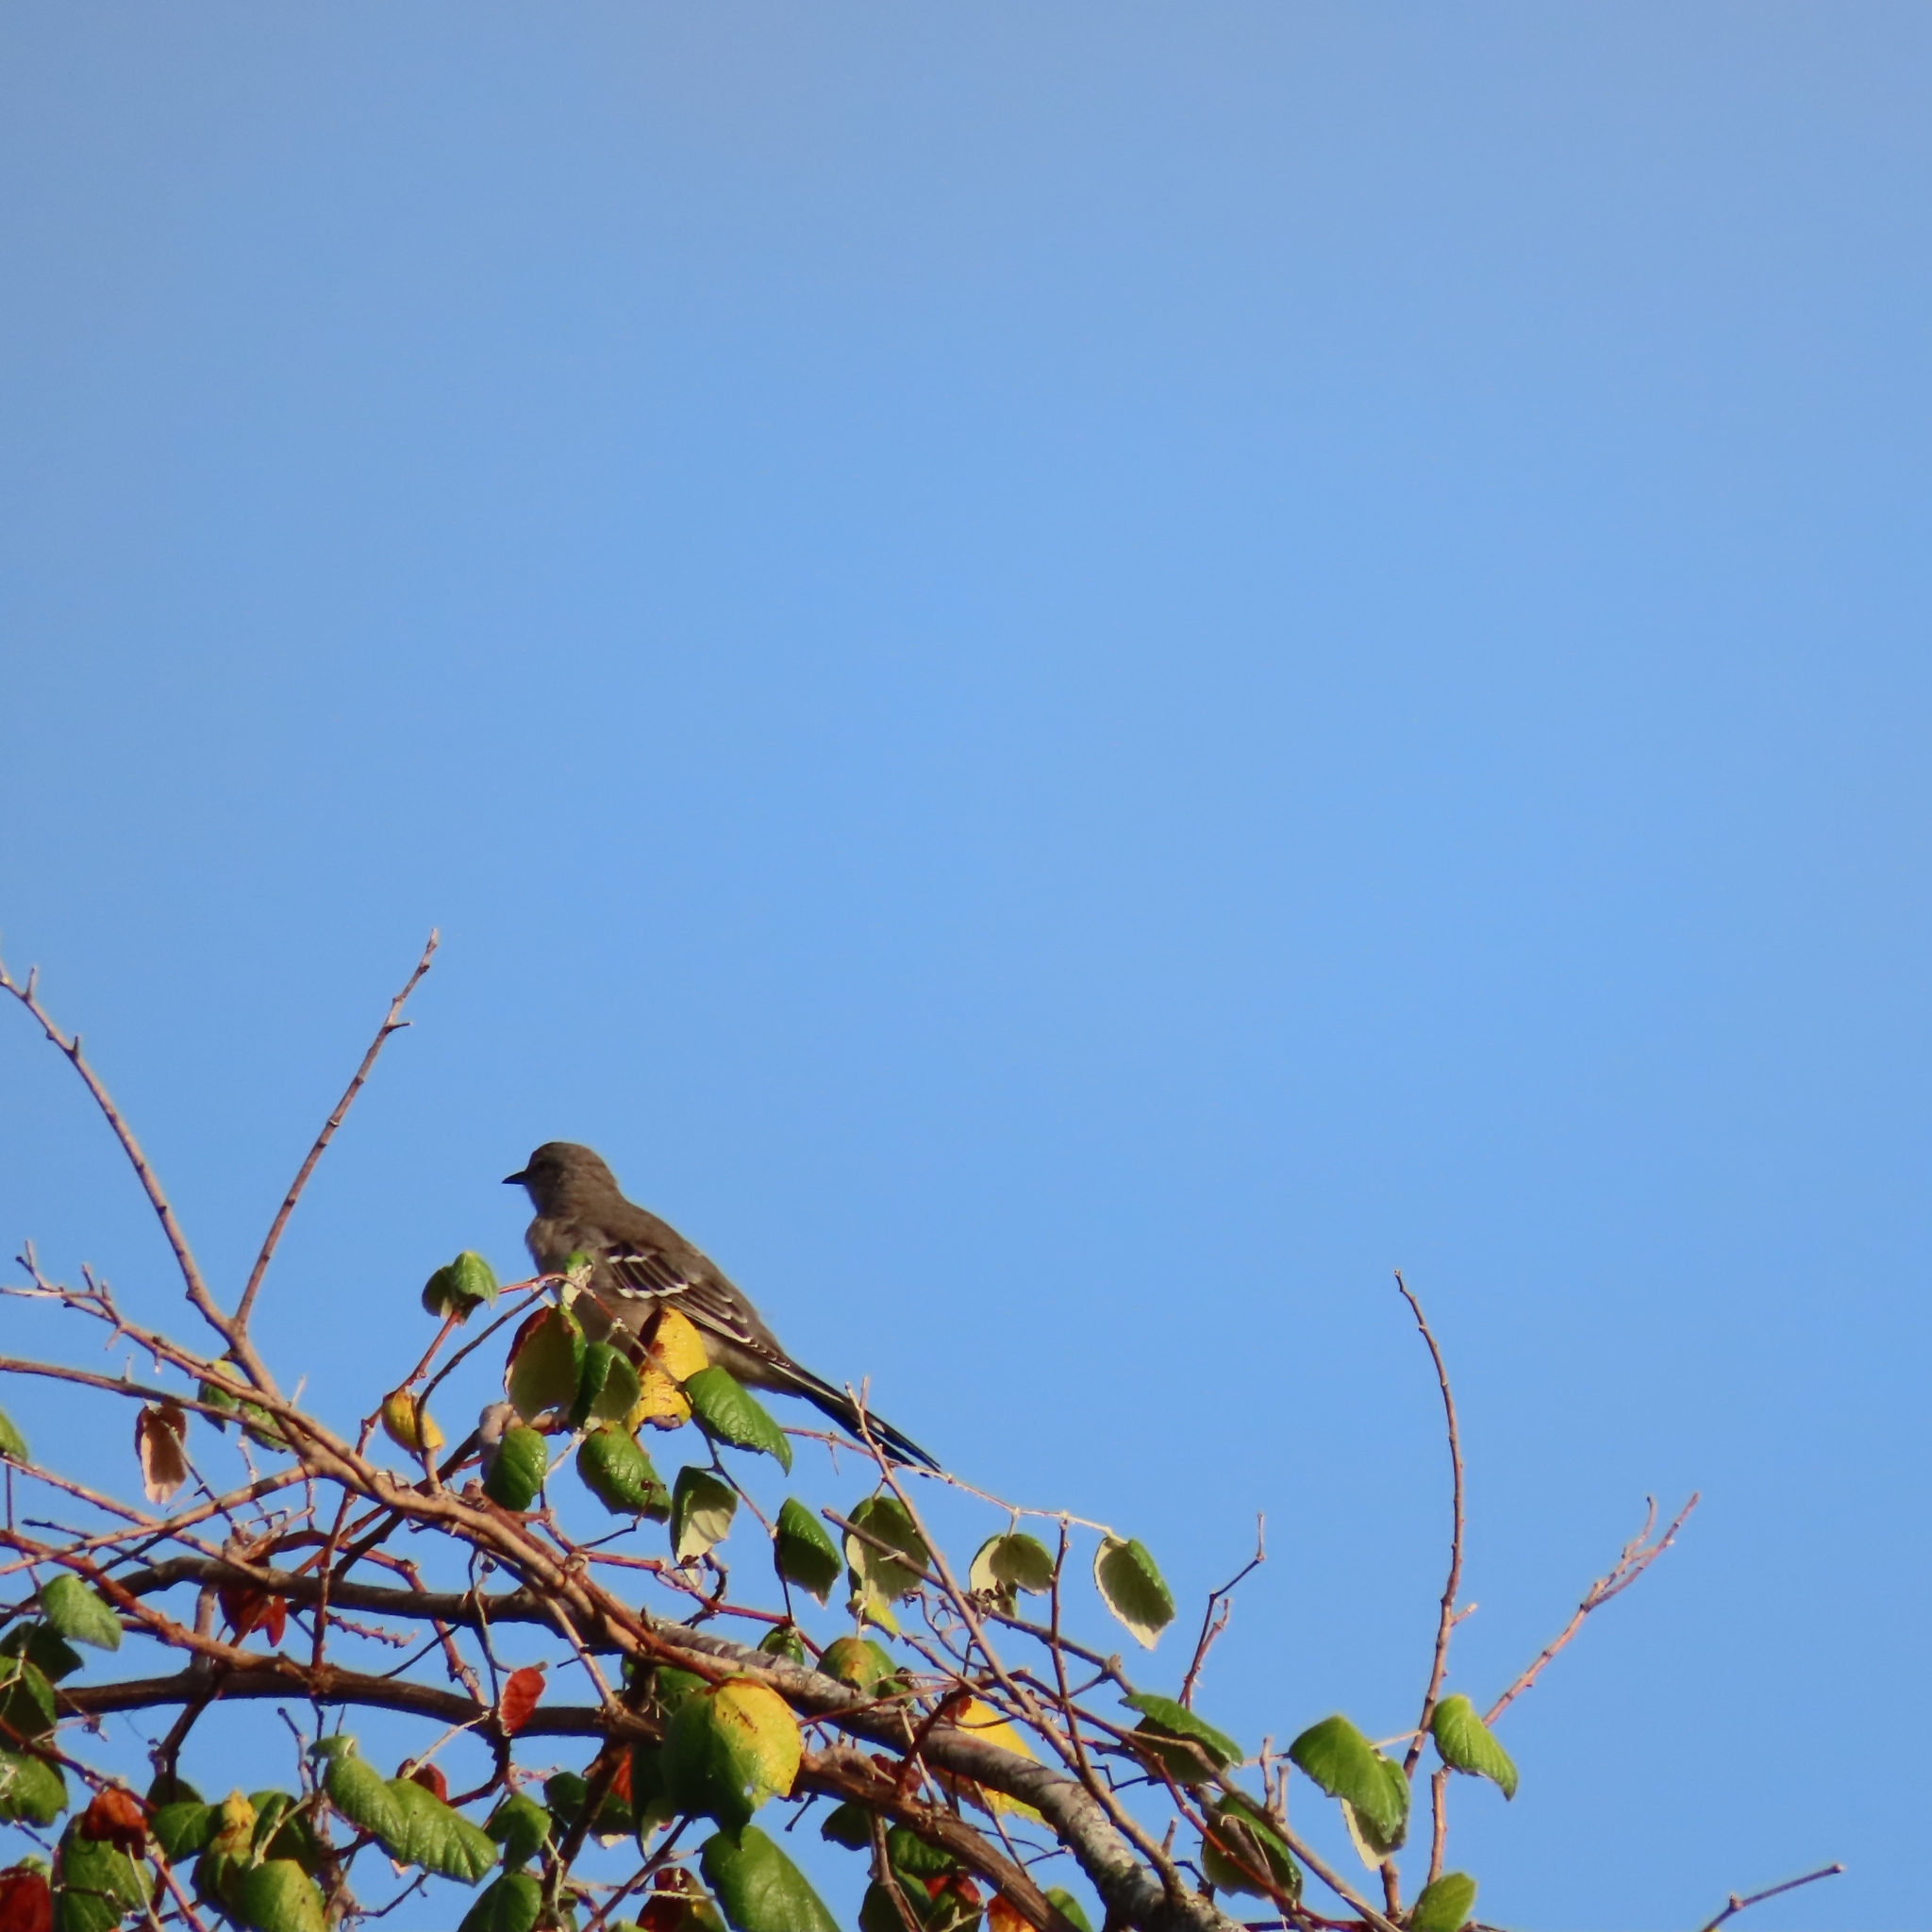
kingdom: Animalia
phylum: Chordata
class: Aves
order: Passeriformes
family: Mimidae
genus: Mimus
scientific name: Mimus polyglottos
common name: Northern mockingbird
